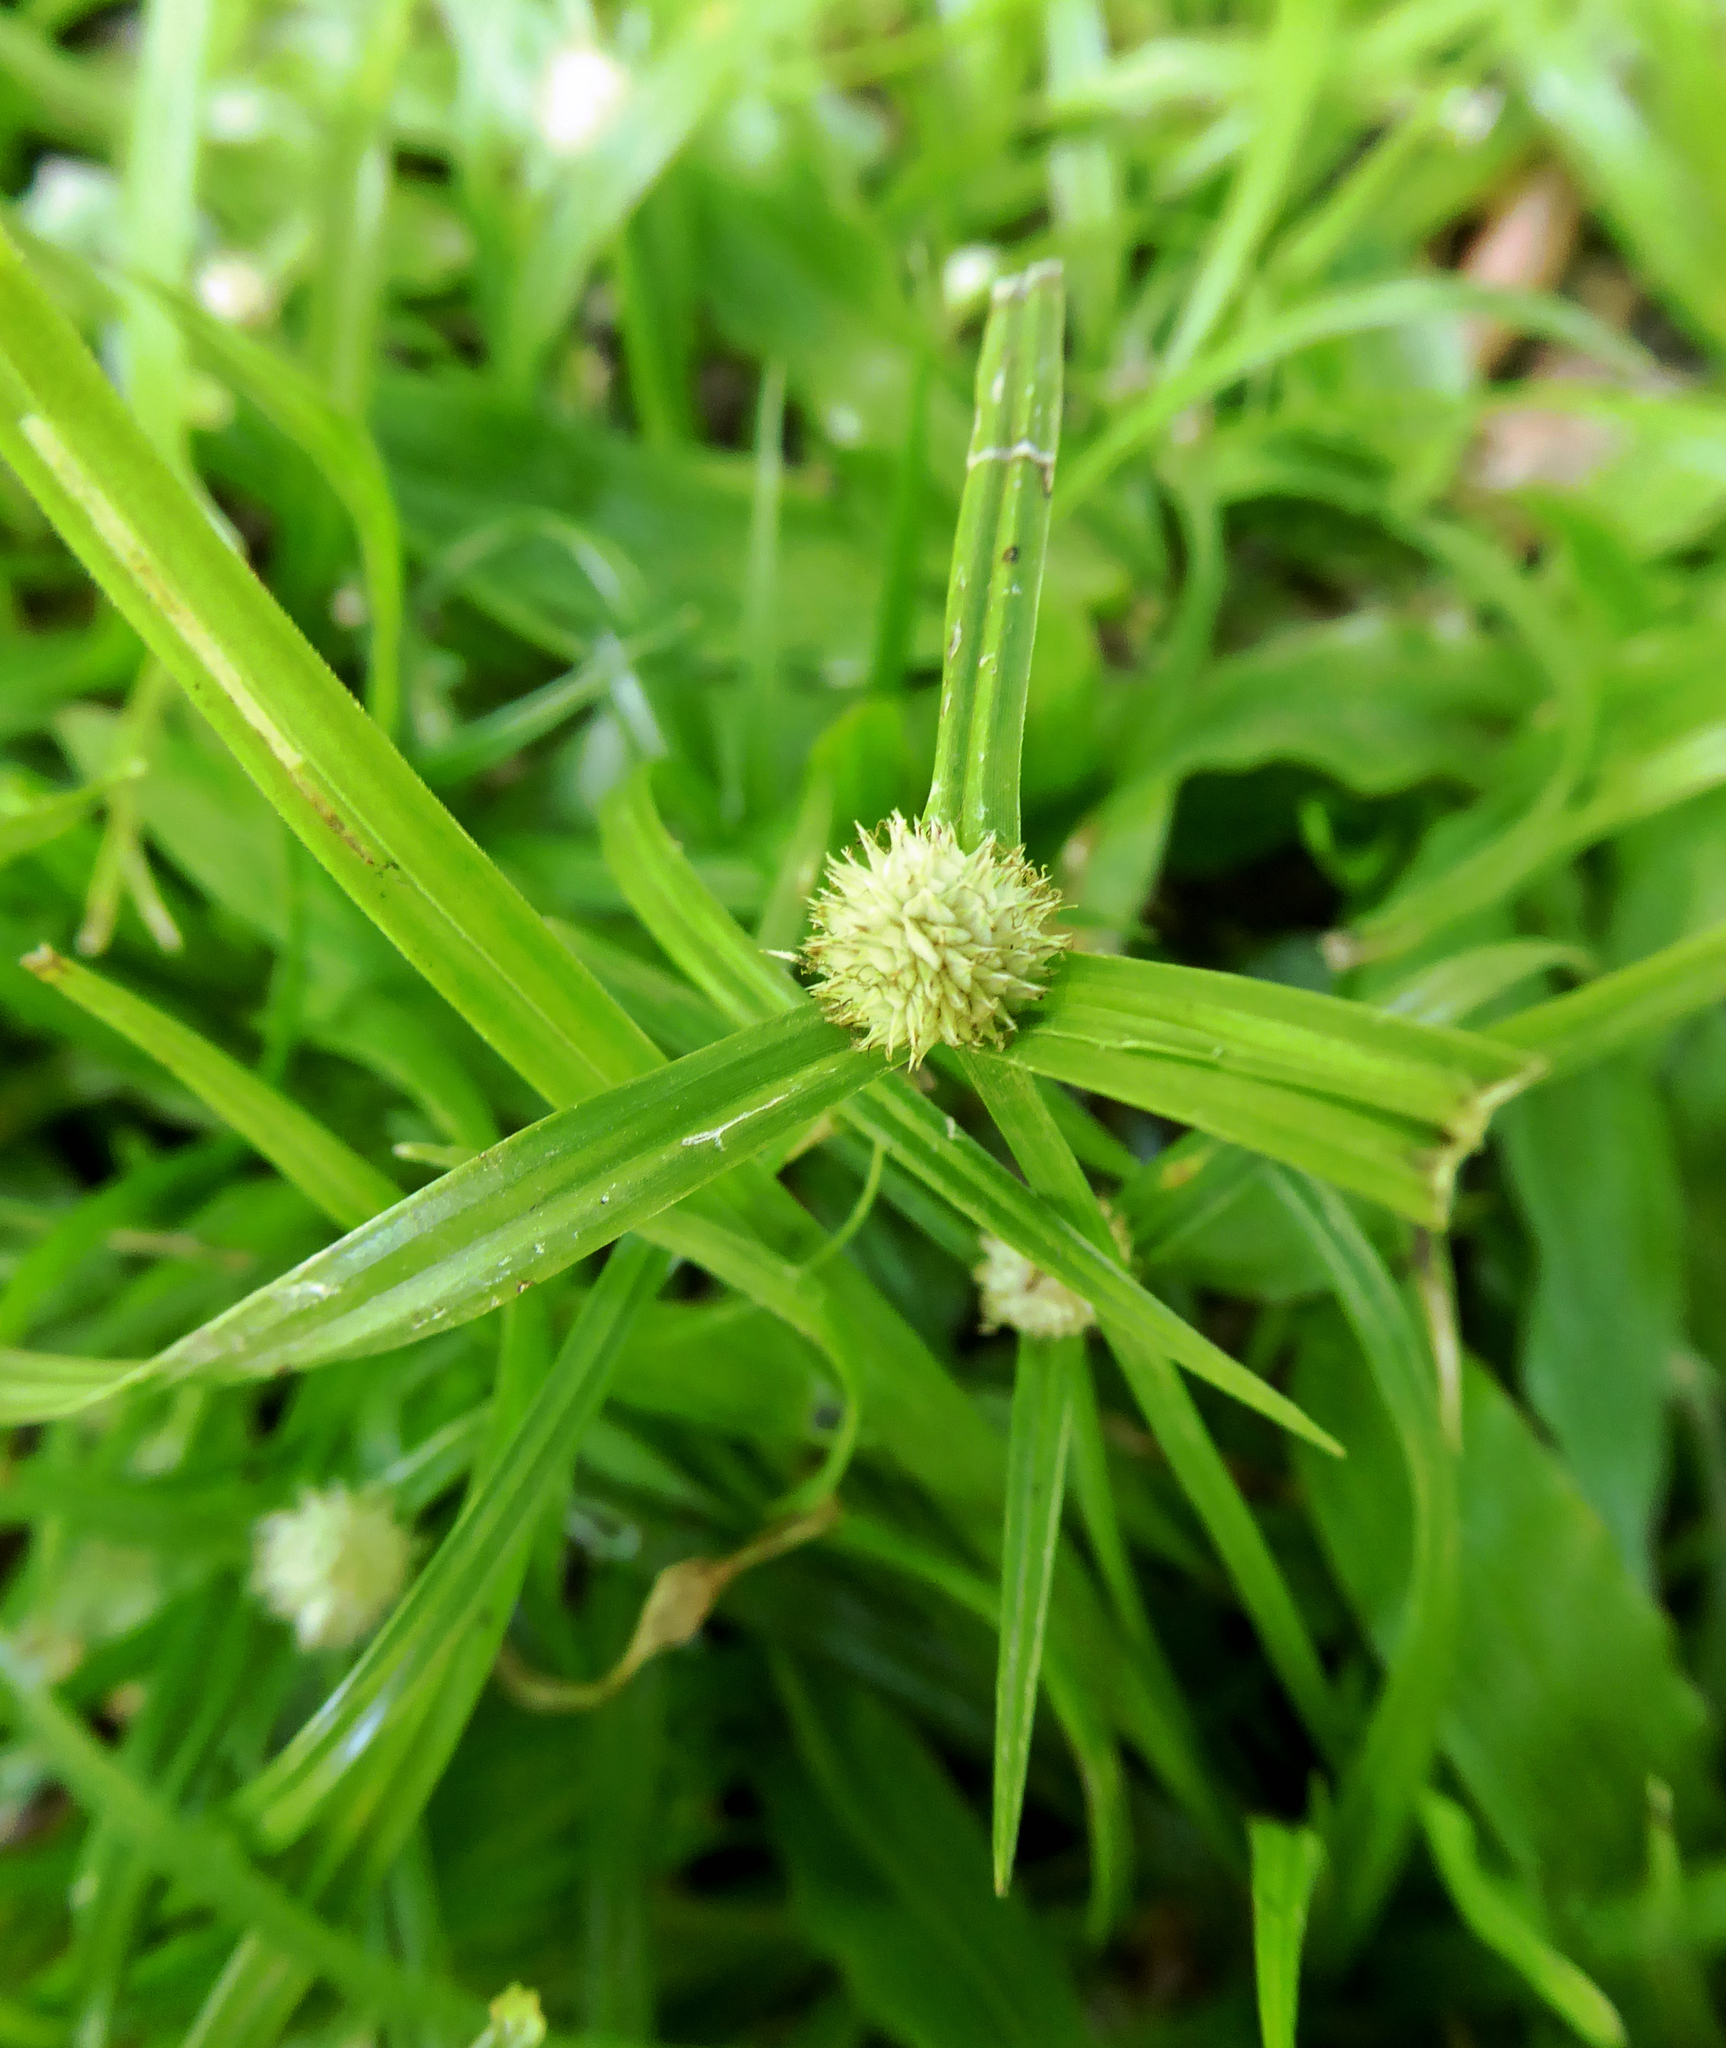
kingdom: Plantae
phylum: Tracheophyta
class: Liliopsida
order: Poales
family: Cyperaceae
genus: Cyperus
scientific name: Cyperus mindorensis
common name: Flatsedge
